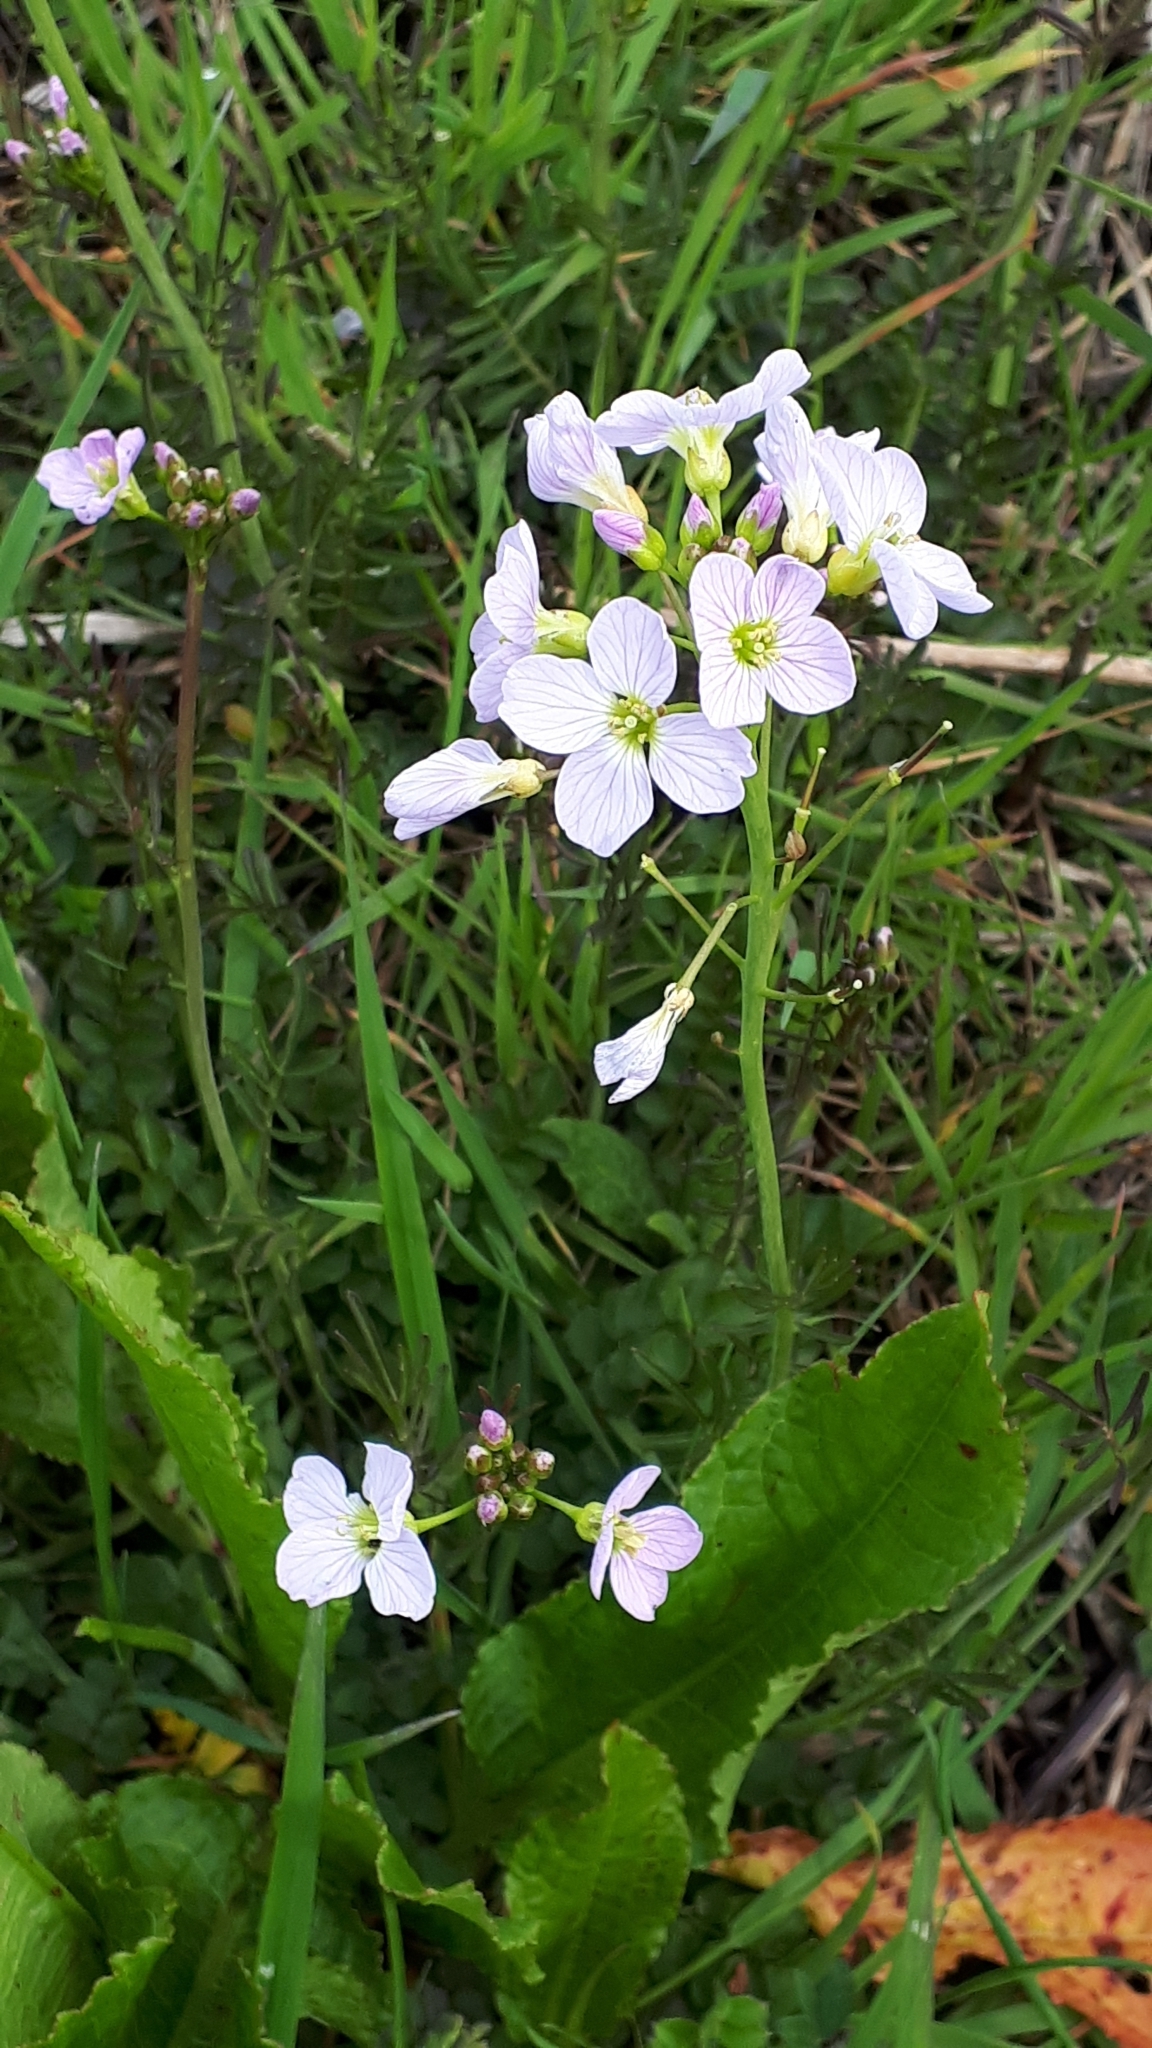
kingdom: Plantae
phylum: Tracheophyta
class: Magnoliopsida
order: Brassicales
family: Brassicaceae
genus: Cardamine
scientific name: Cardamine pratensis
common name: Cuckoo flower
